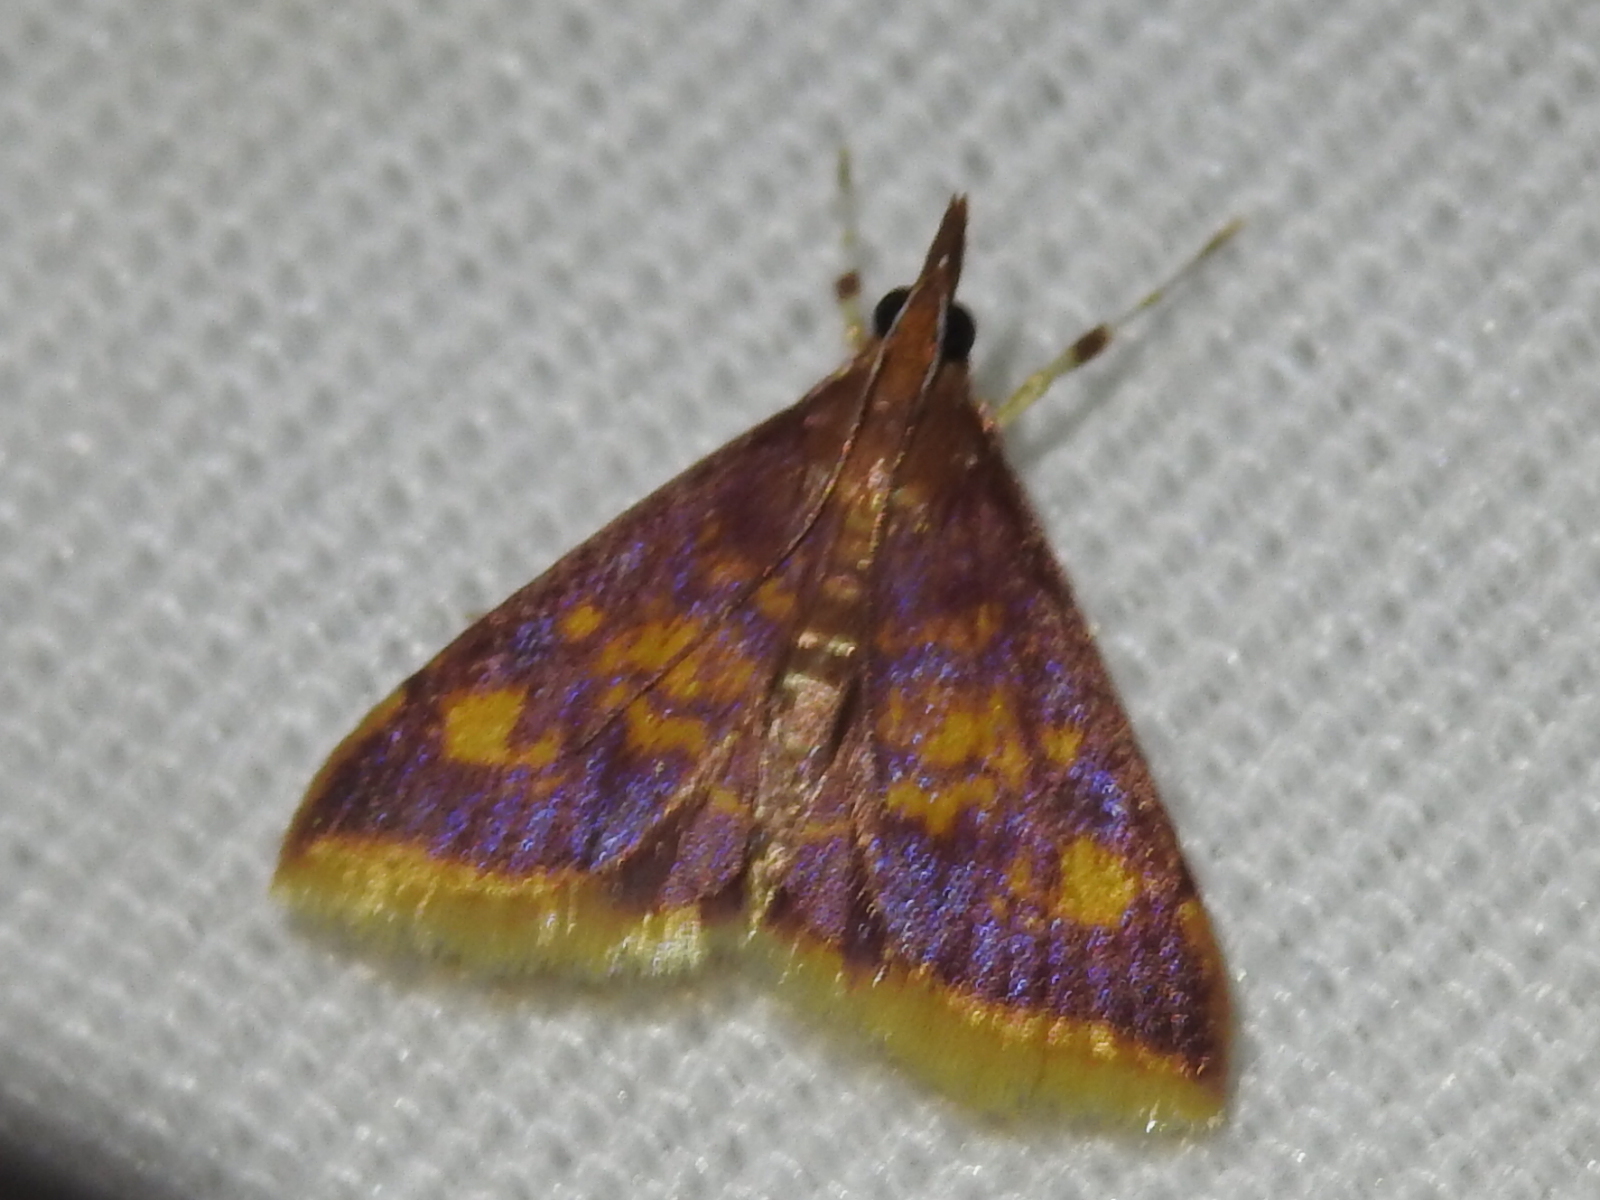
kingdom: Animalia
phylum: Arthropoda
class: Insecta
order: Lepidoptera
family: Crambidae
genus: Pyrausta
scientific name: Pyrausta acrionalis
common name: Mint-loving pyrausta moth
